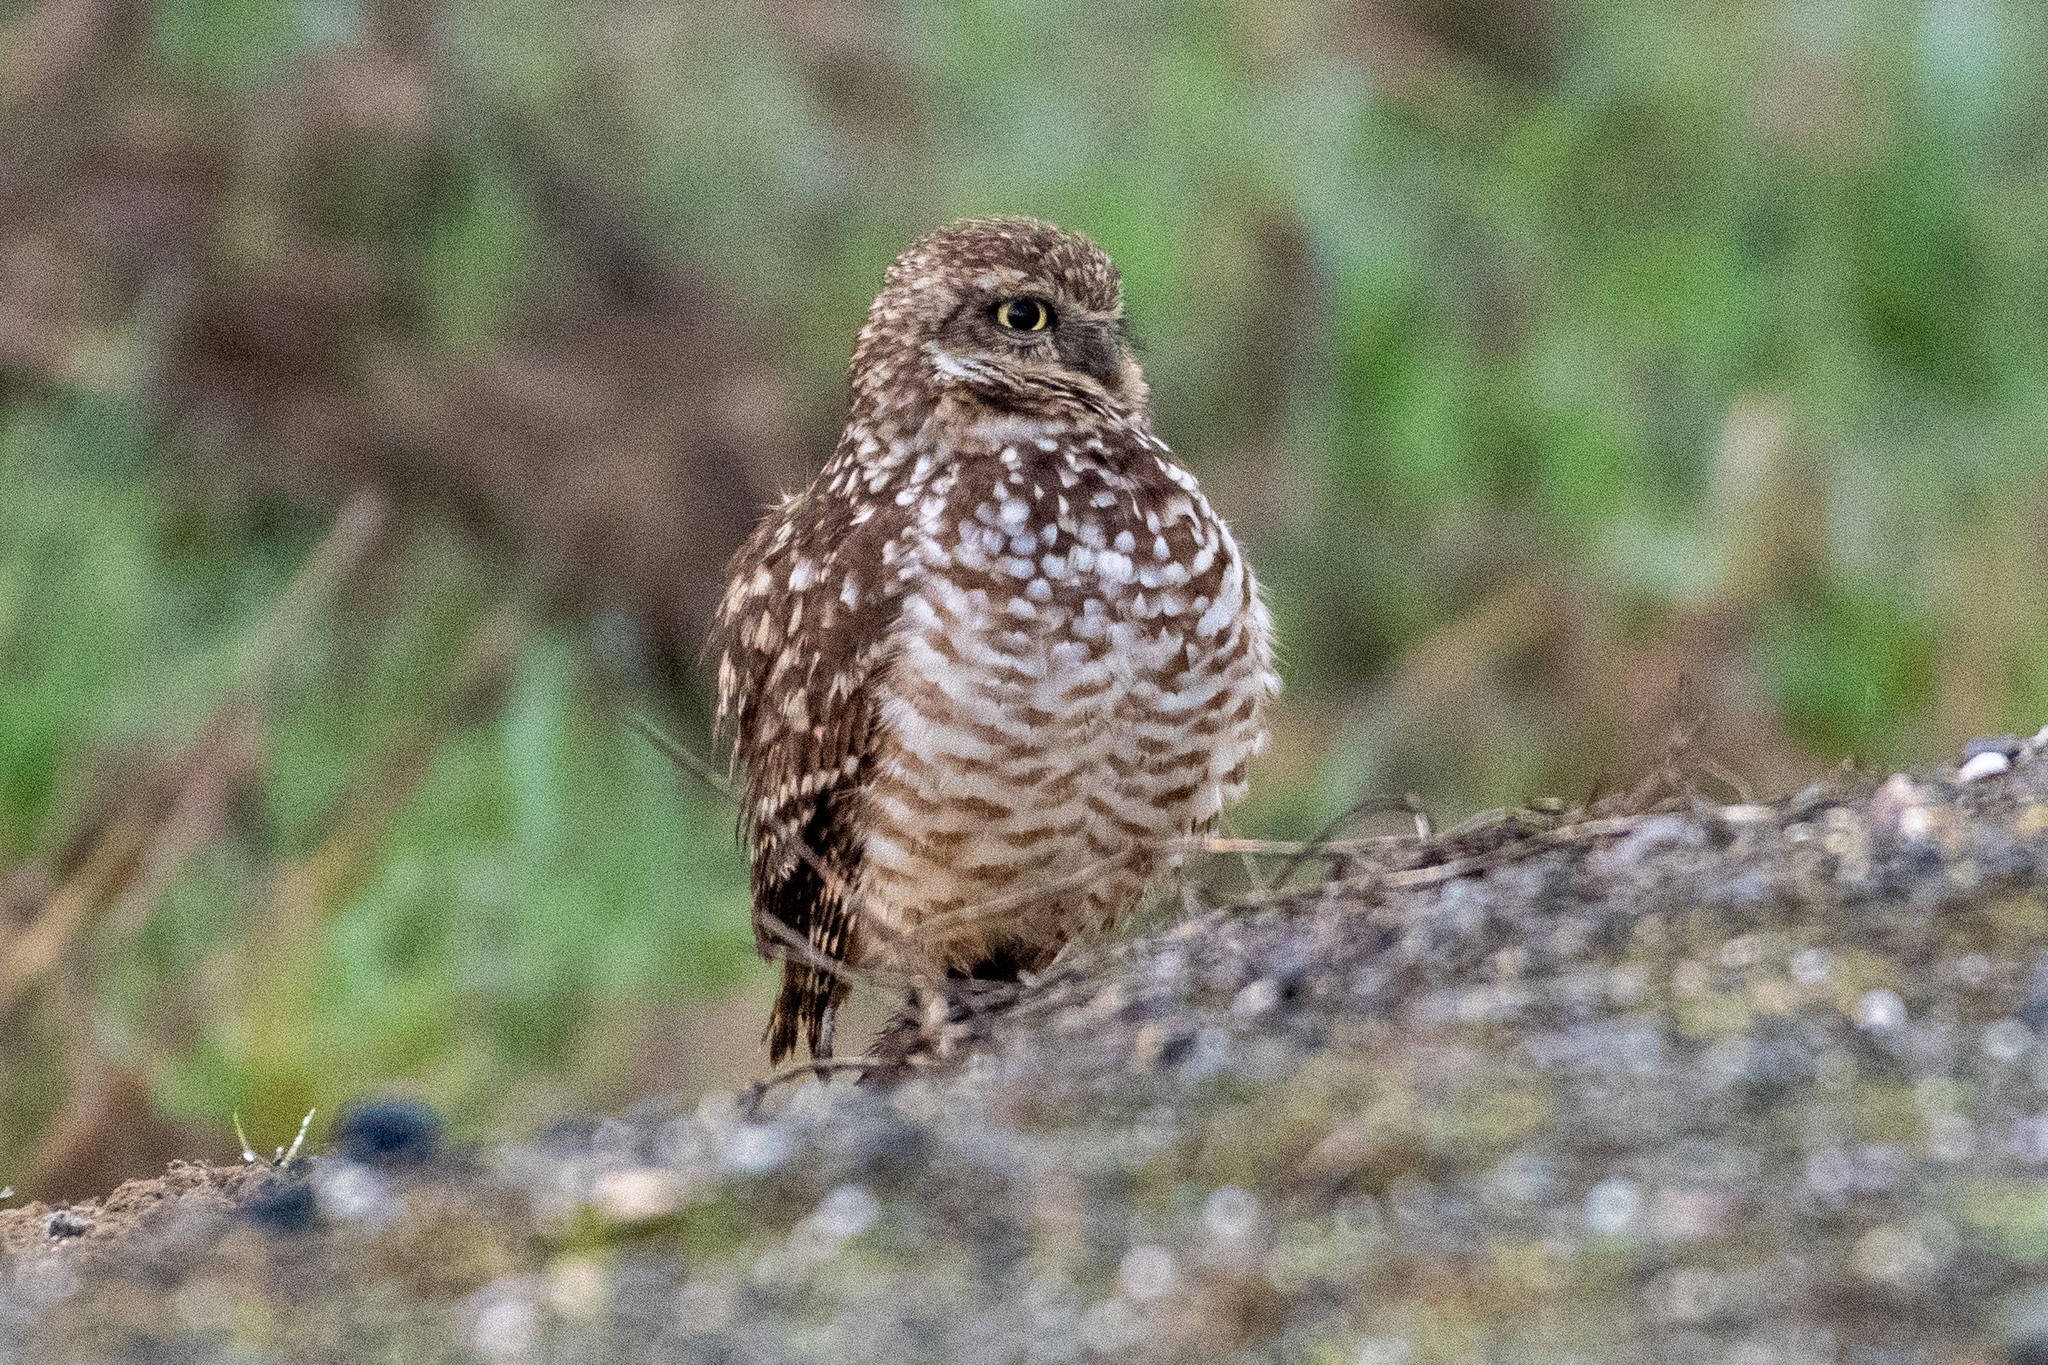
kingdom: Animalia
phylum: Chordata
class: Aves
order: Strigiformes
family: Strigidae
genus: Athene
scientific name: Athene cunicularia
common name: Burrowing owl
